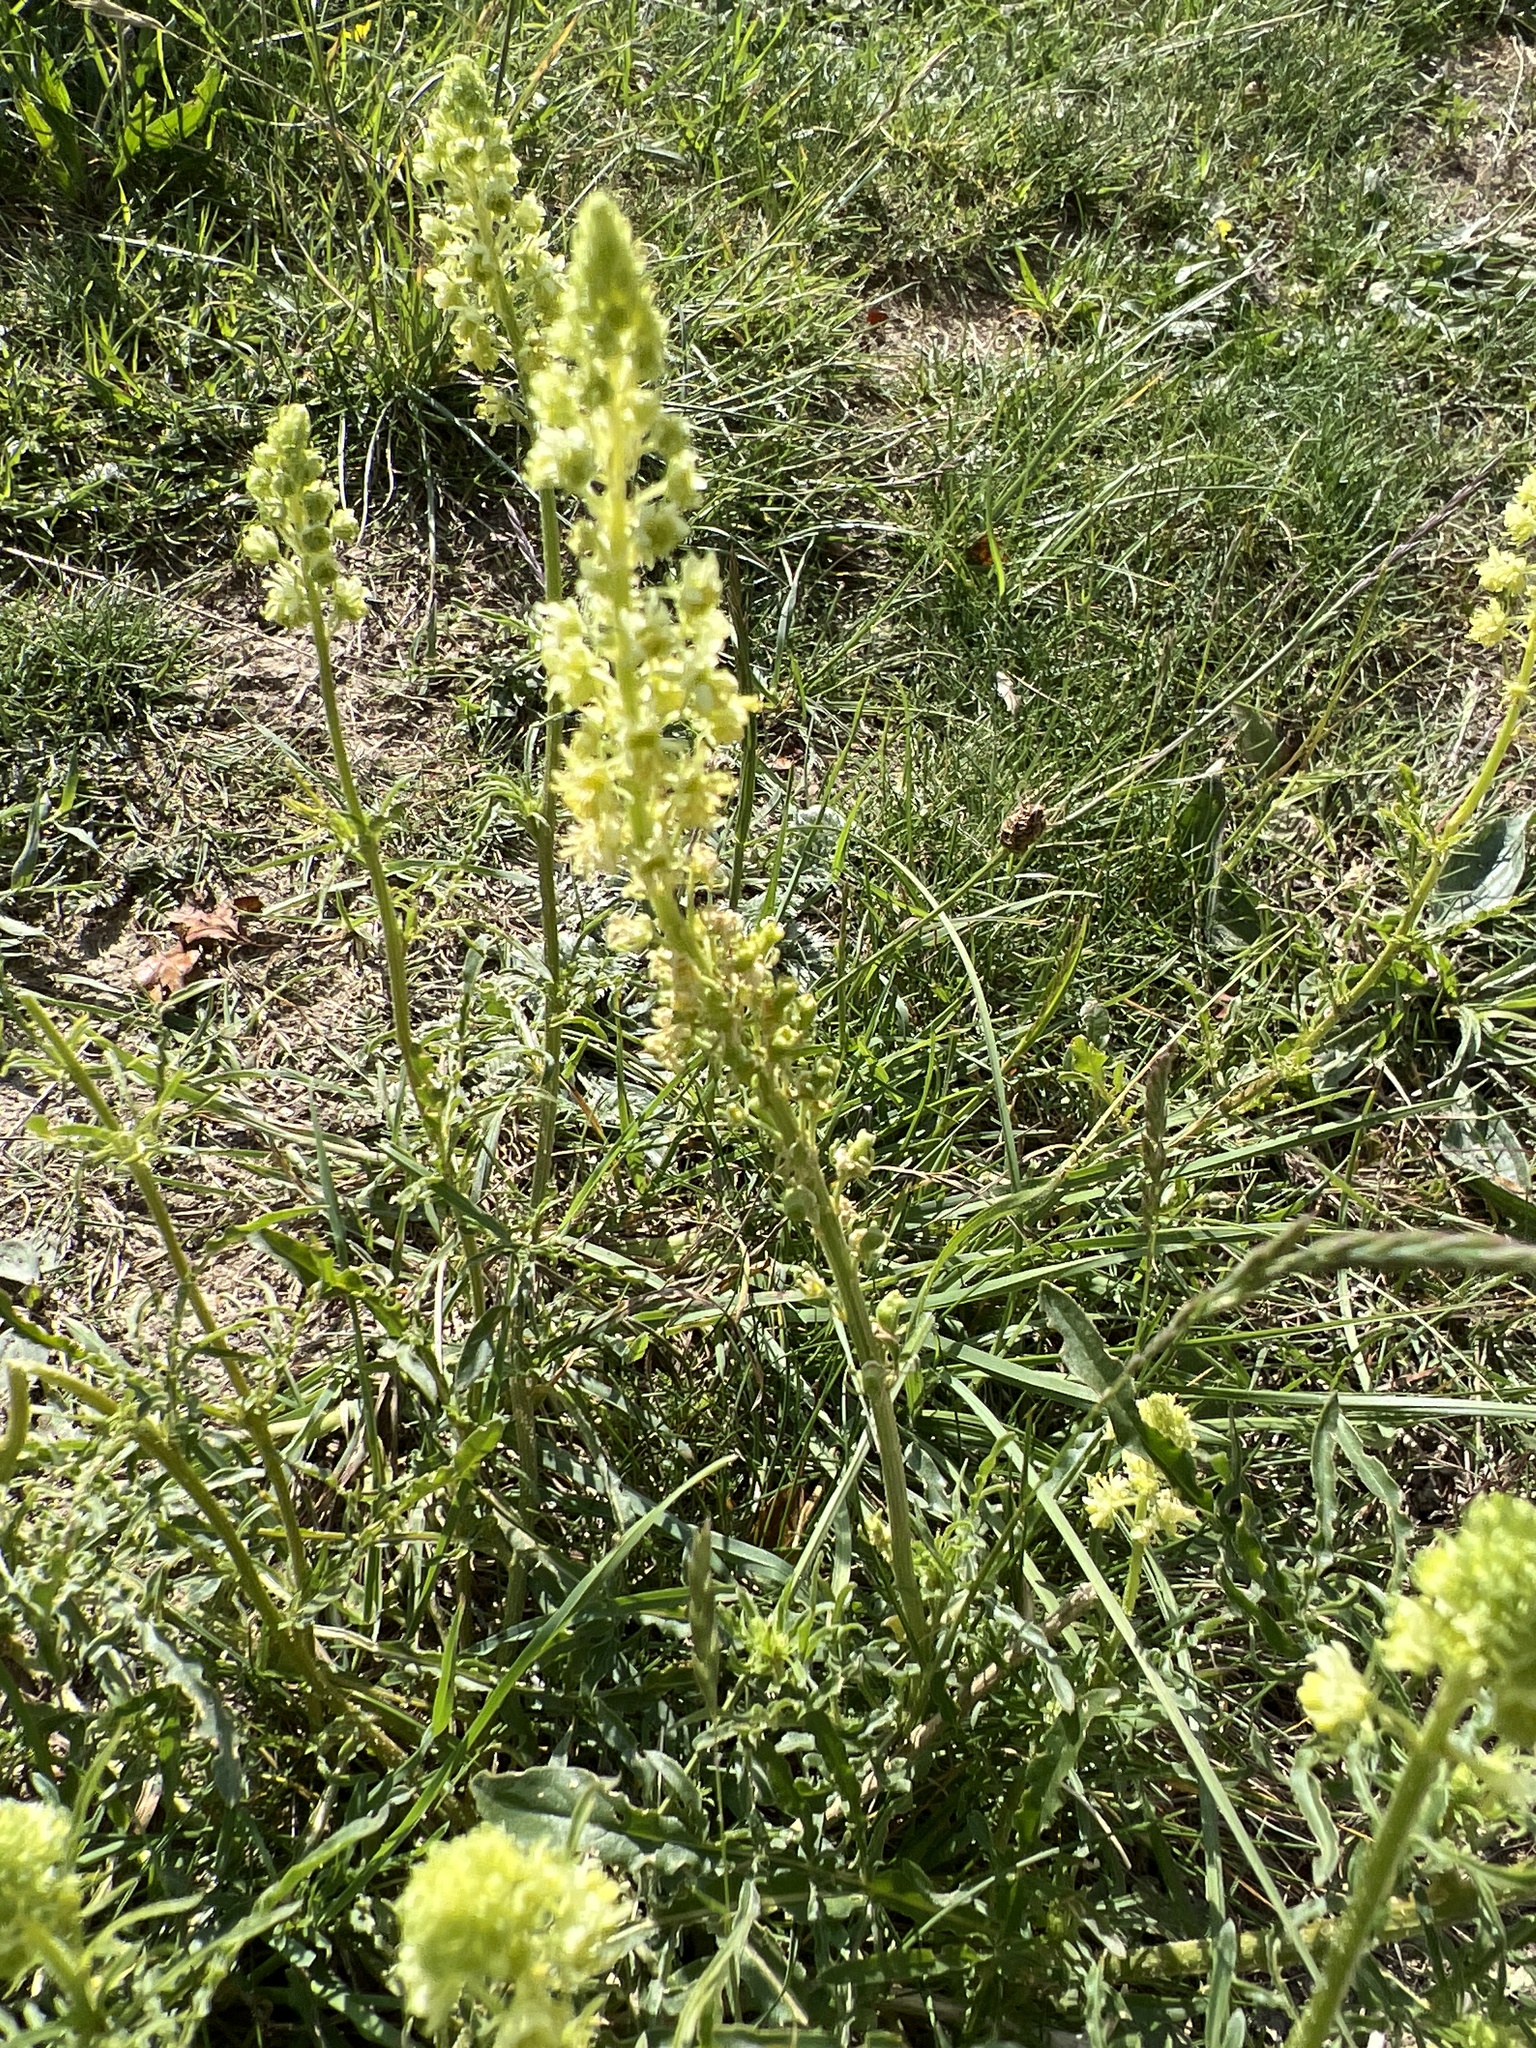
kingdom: Plantae
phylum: Tracheophyta
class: Magnoliopsida
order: Brassicales
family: Resedaceae
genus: Reseda
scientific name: Reseda lutea
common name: Wild mignonette
